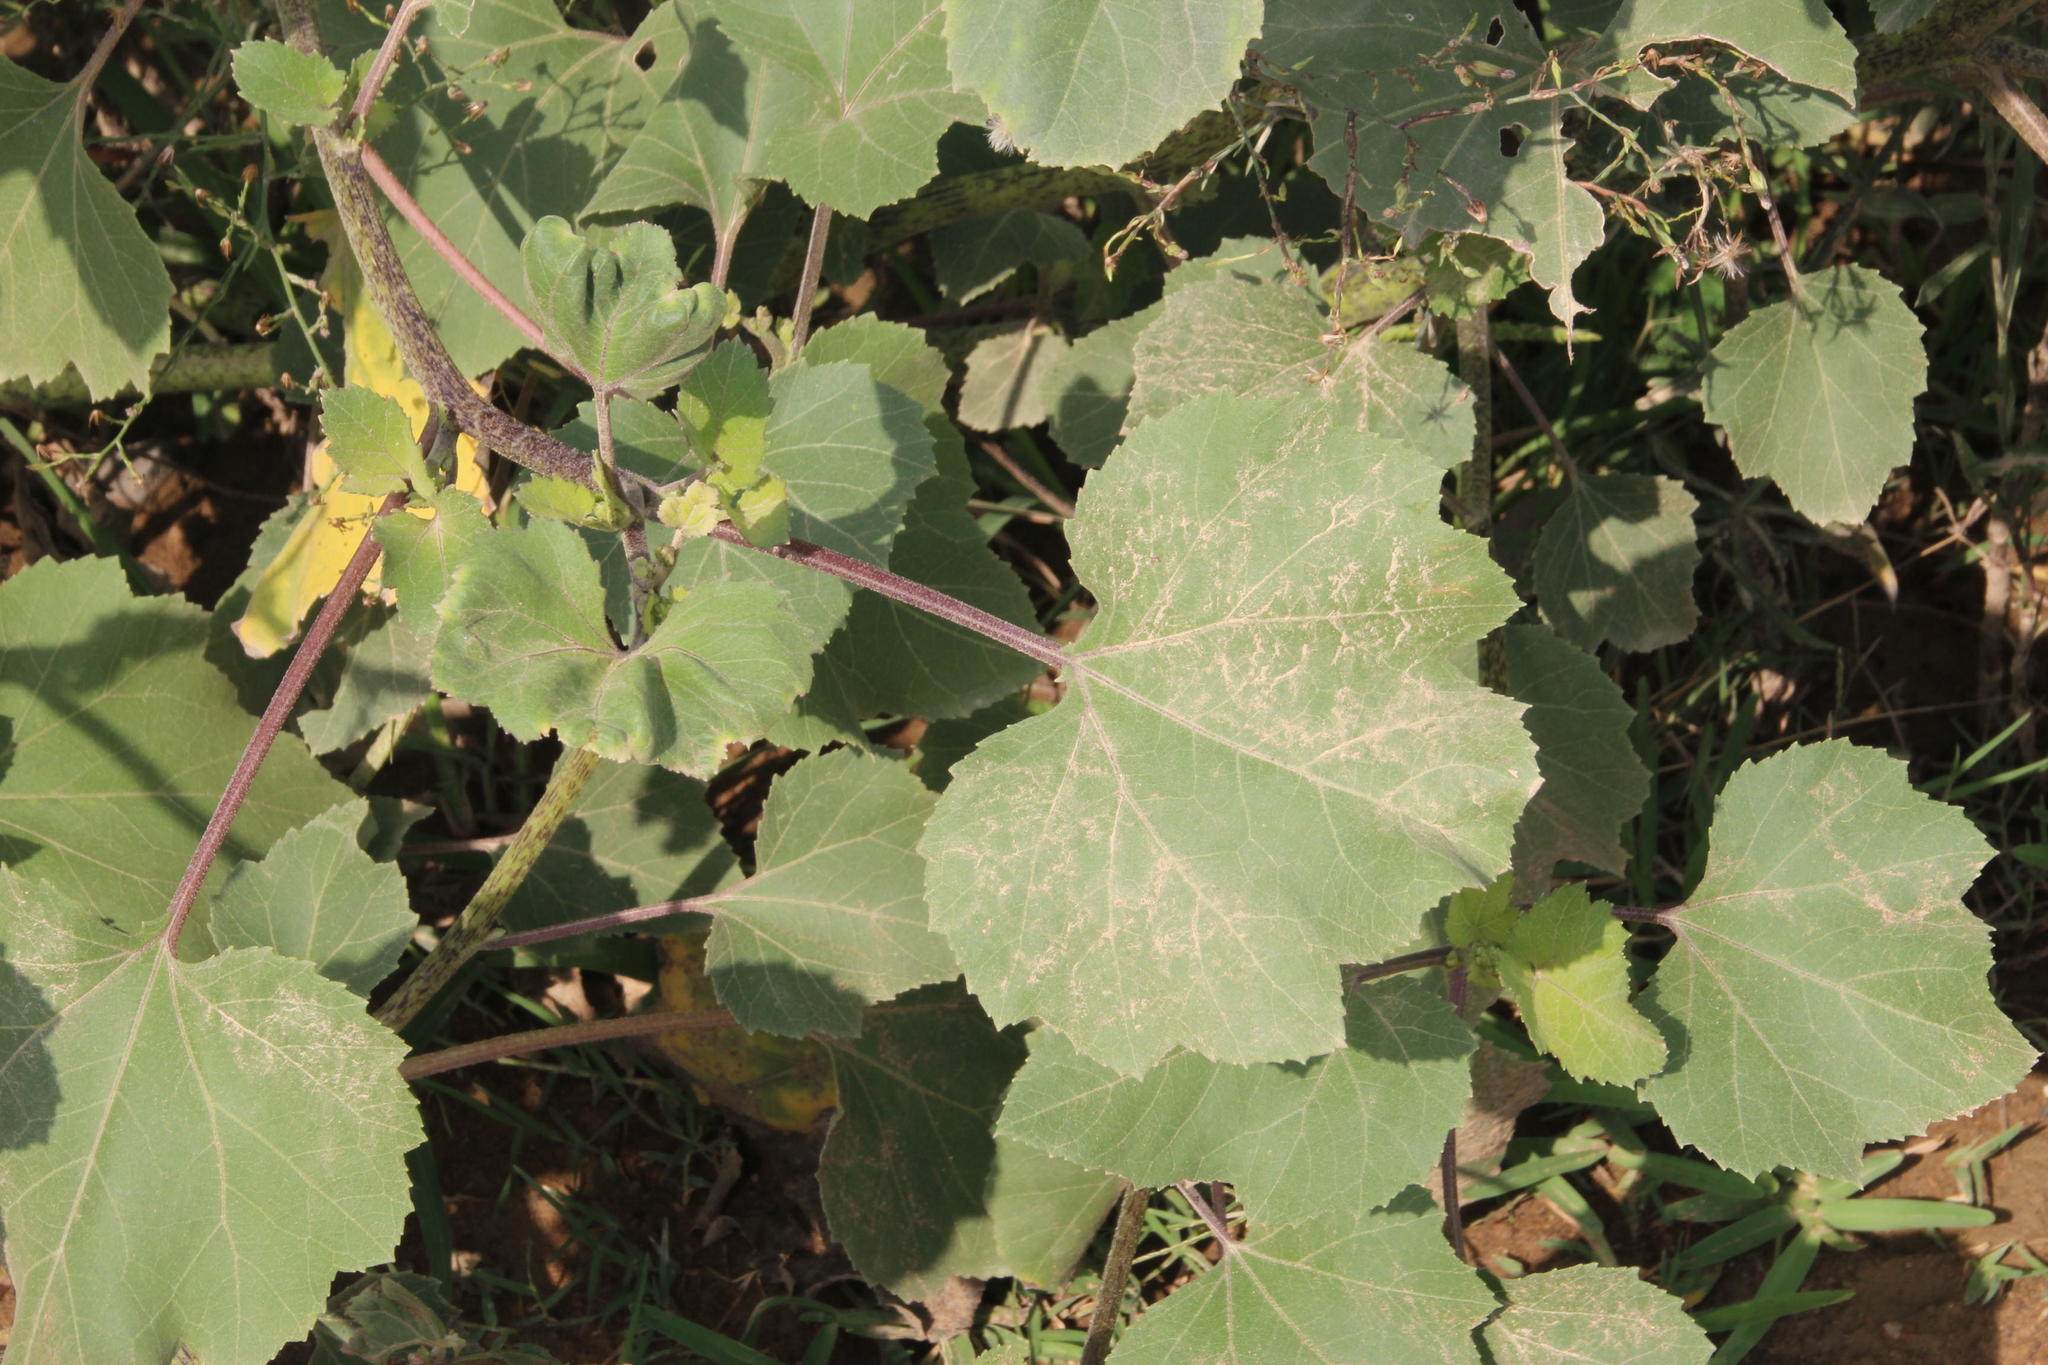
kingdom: Plantae
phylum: Tracheophyta
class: Magnoliopsida
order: Asterales
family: Asteraceae
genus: Xanthium
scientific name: Xanthium strumarium
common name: Rough cocklebur
